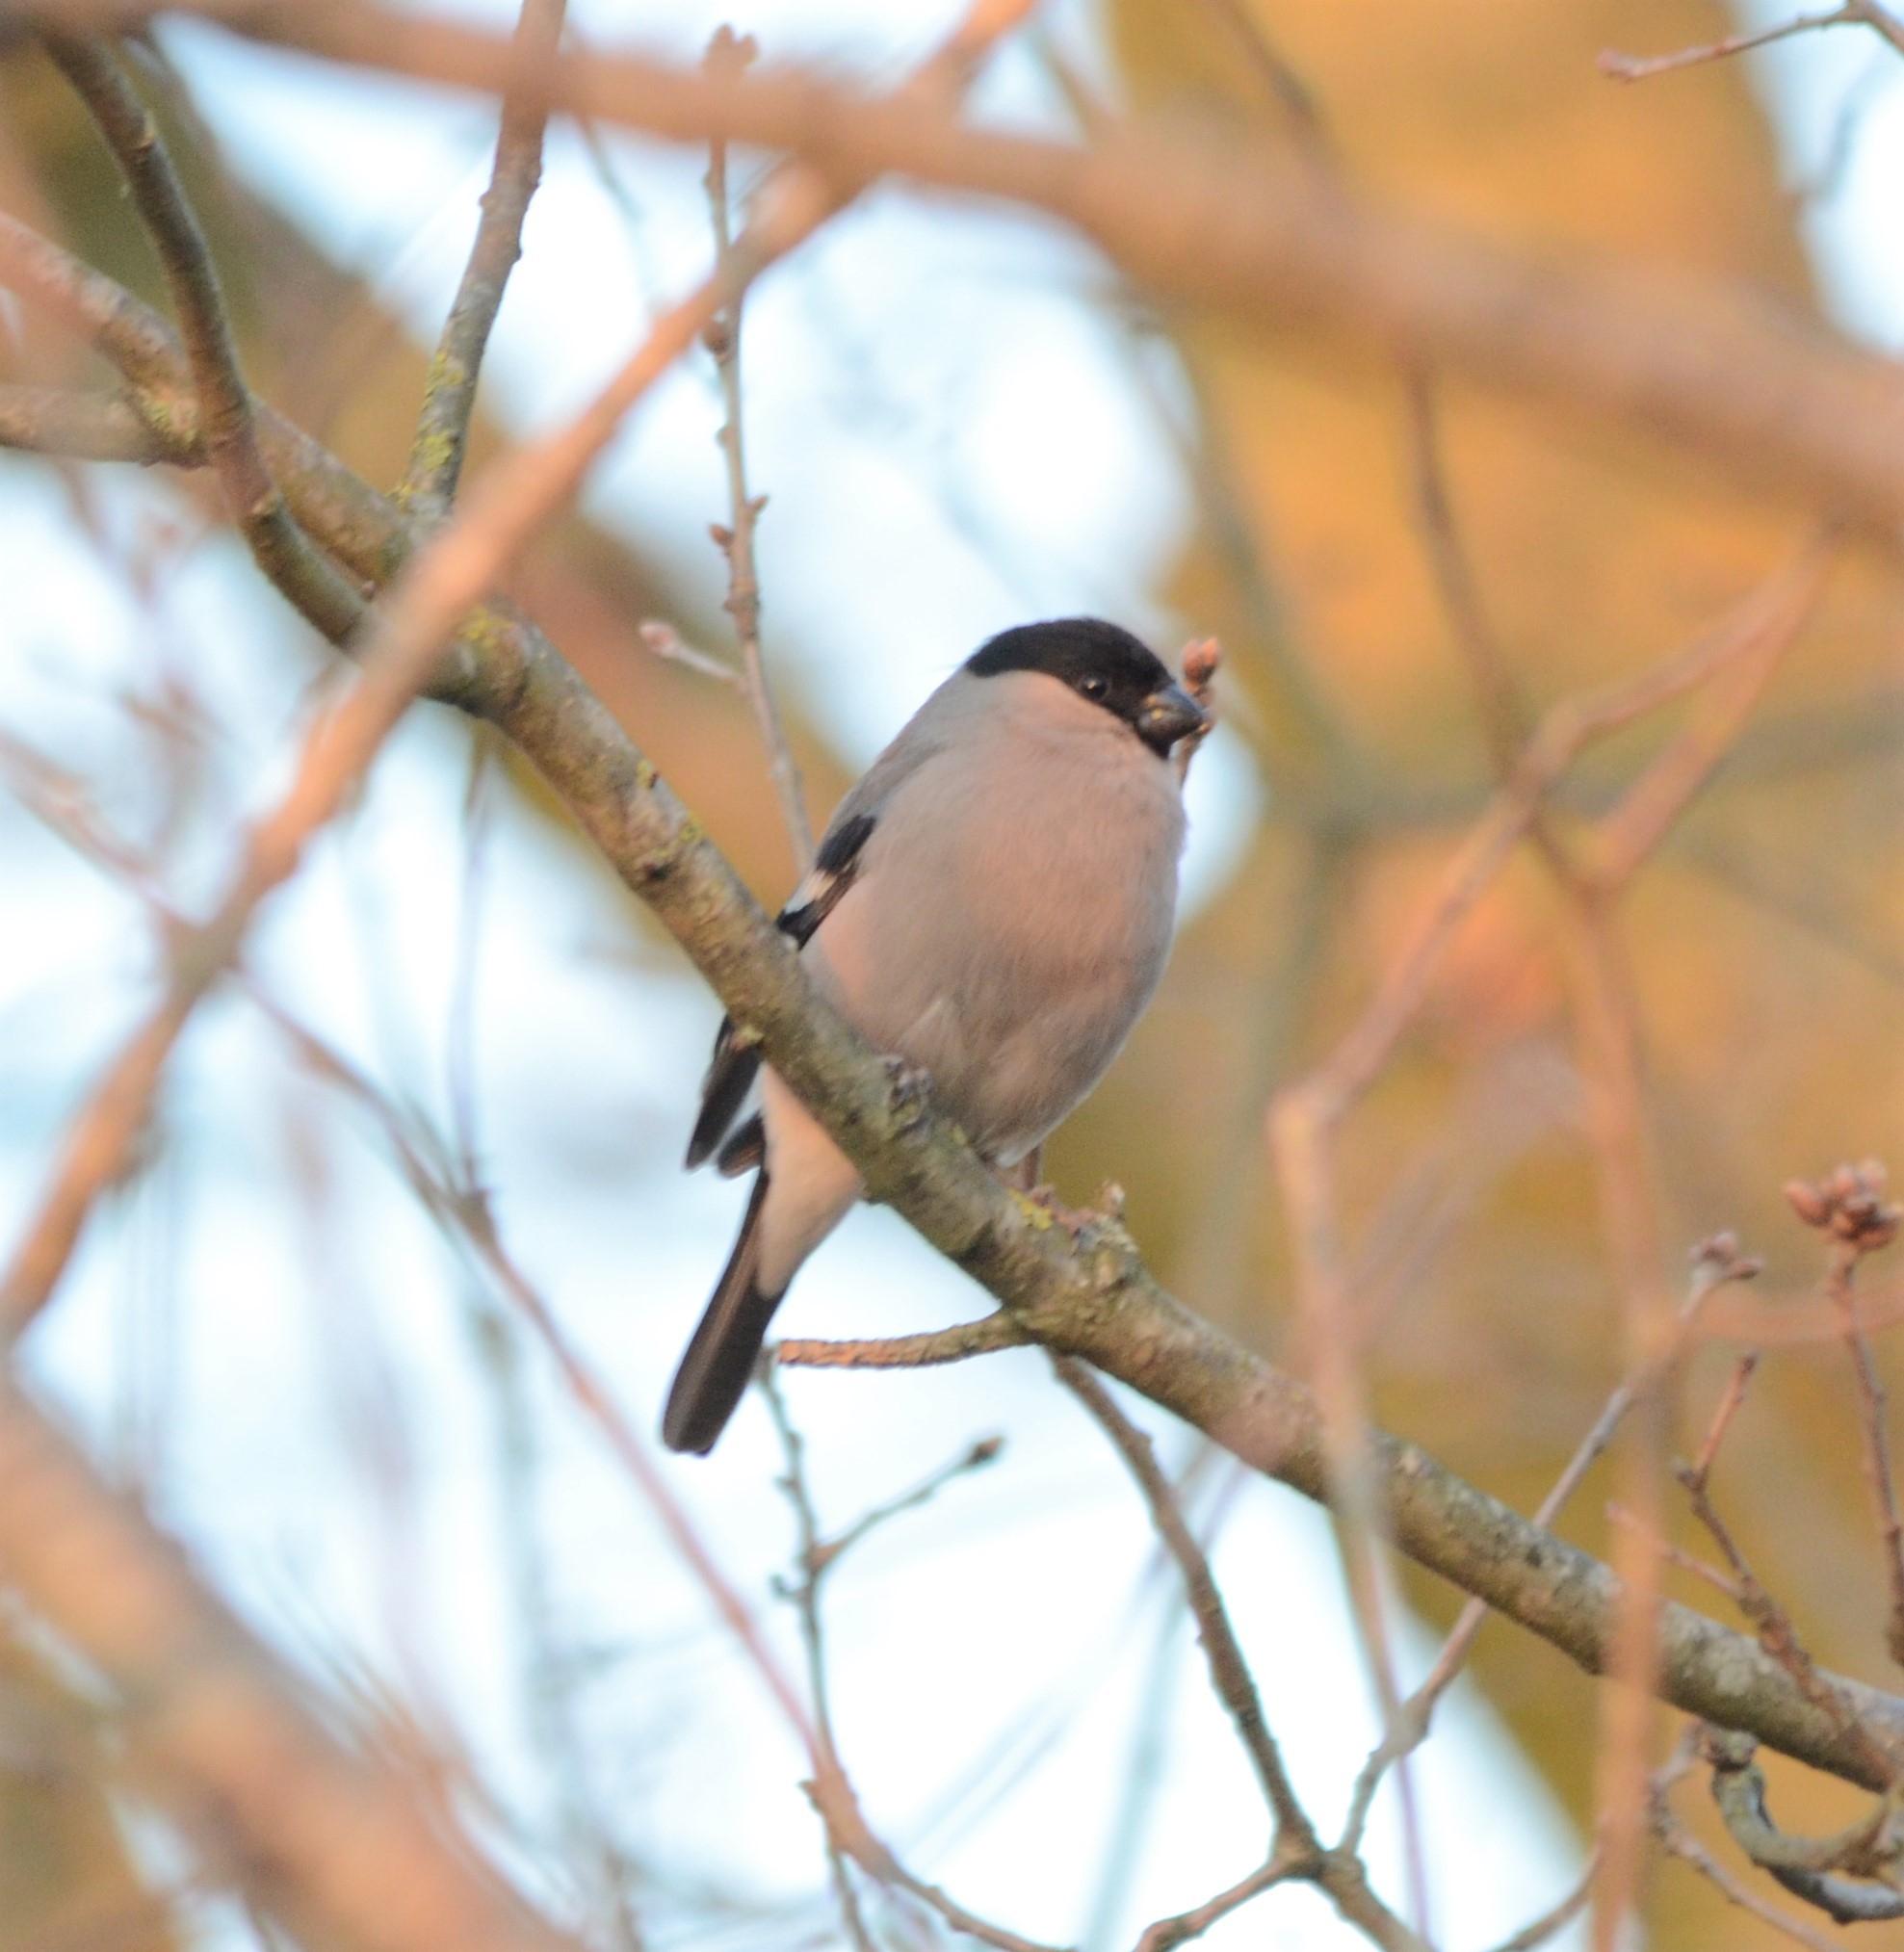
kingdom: Animalia
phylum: Chordata
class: Aves
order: Passeriformes
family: Fringillidae
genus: Pyrrhula
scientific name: Pyrrhula pyrrhula
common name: Eurasian bullfinch
